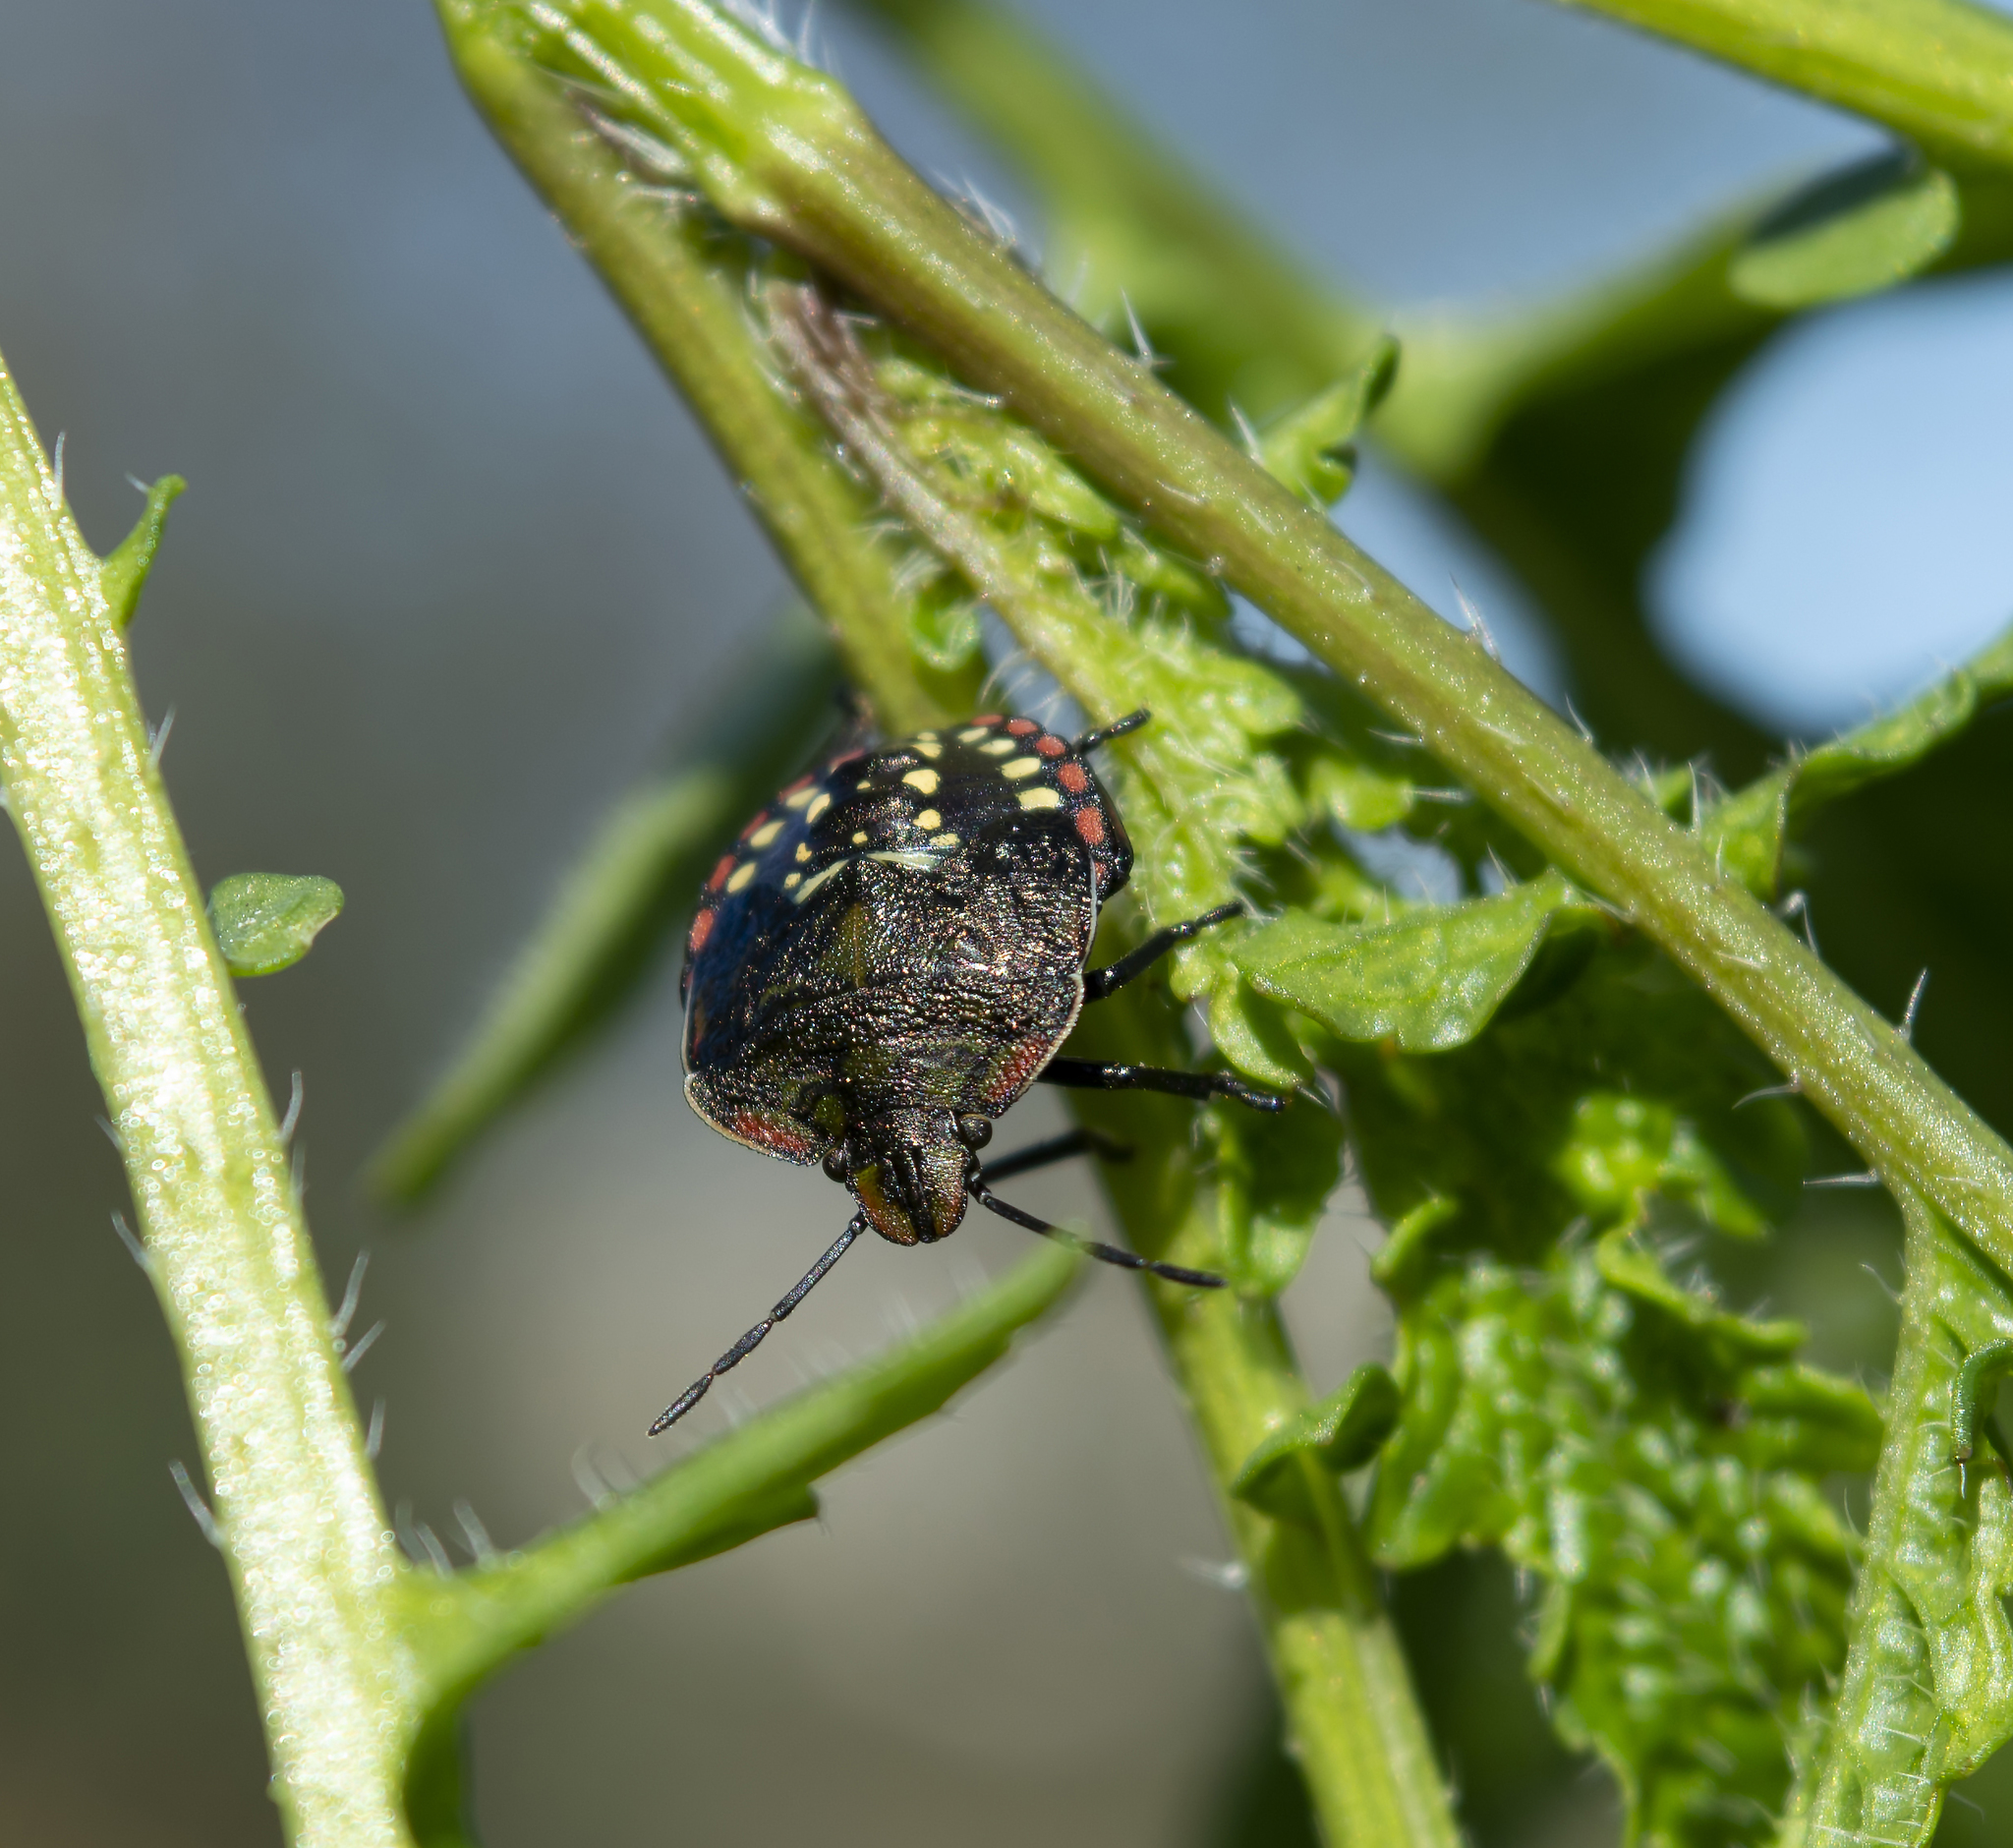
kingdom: Animalia
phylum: Arthropoda
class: Insecta
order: Hemiptera
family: Pentatomidae
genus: Nezara
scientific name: Nezara viridula
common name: Southern green stink bug
